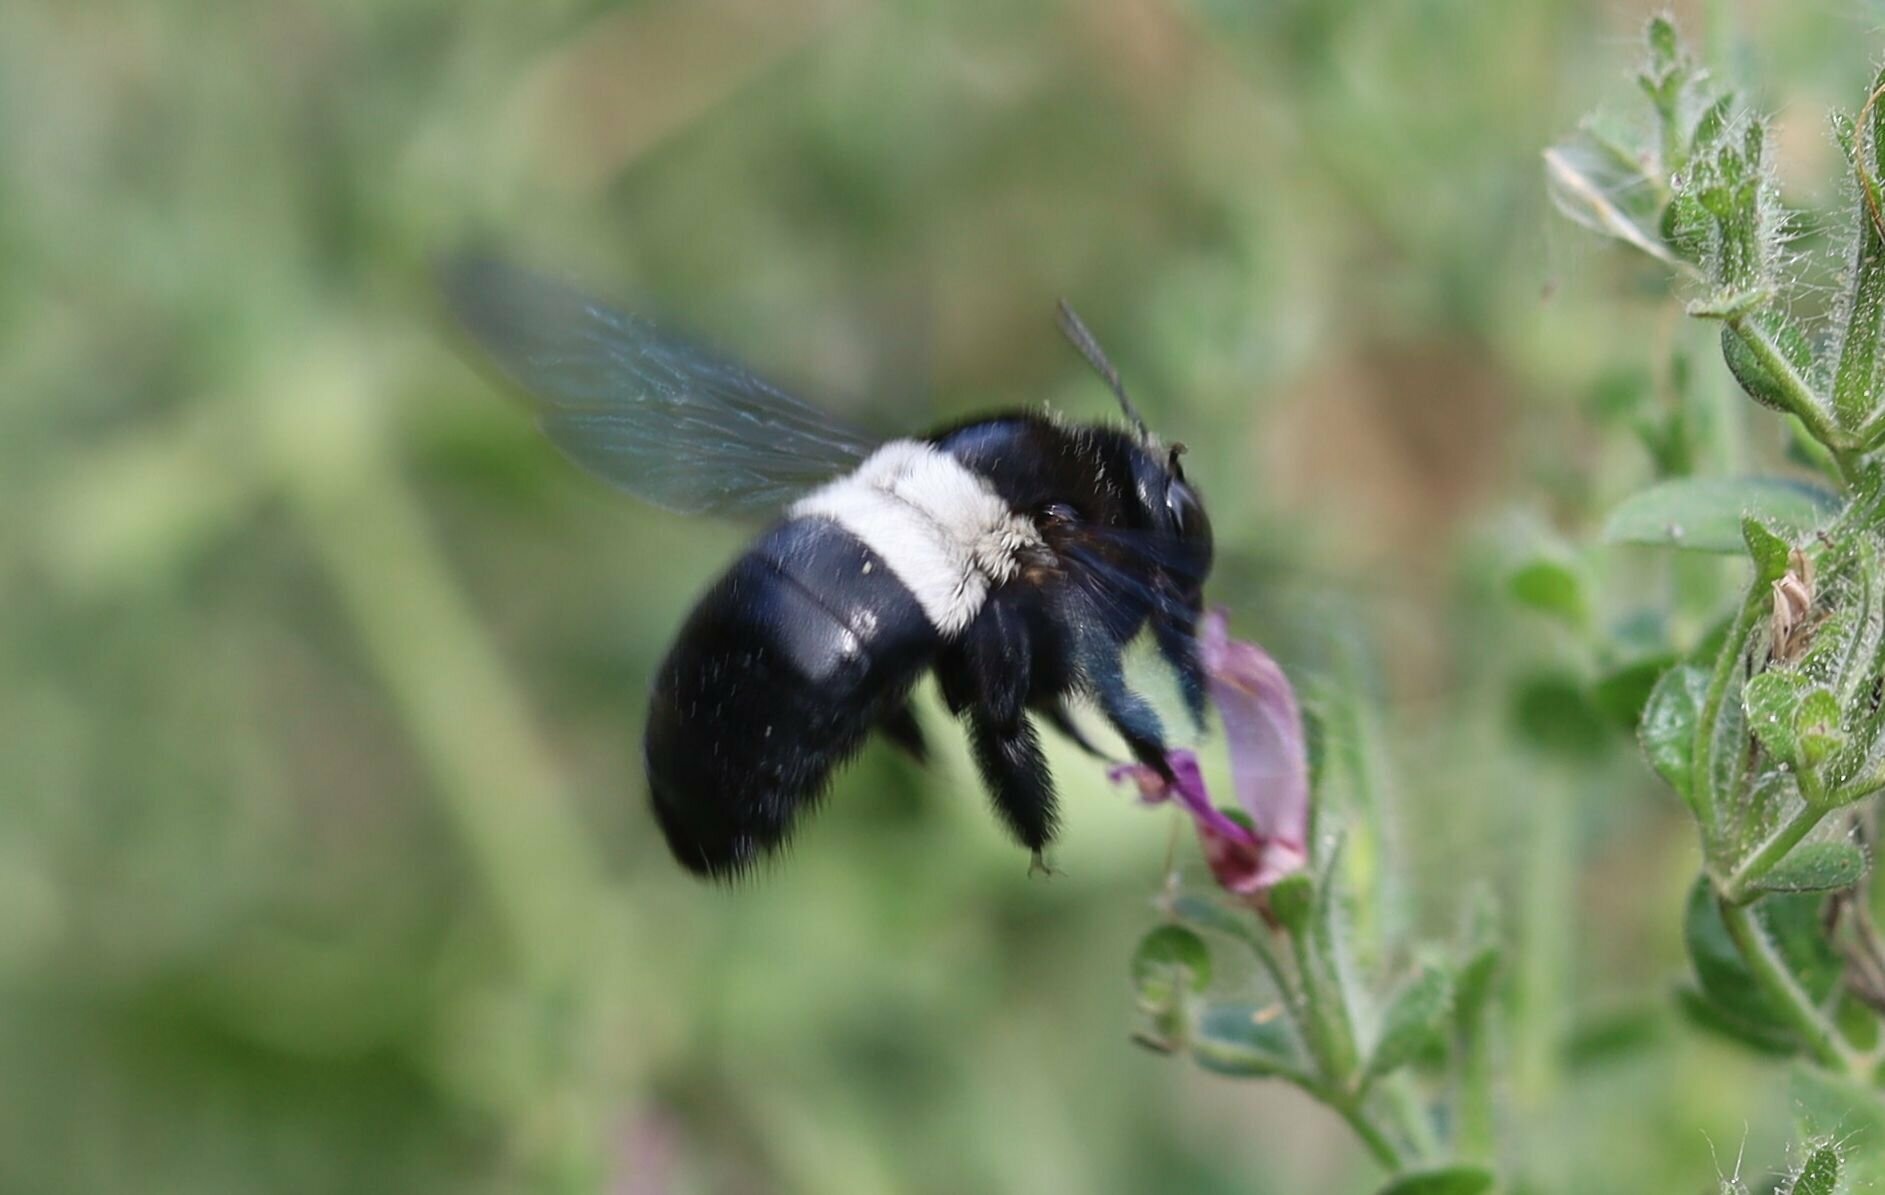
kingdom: Animalia
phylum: Arthropoda
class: Insecta
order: Hymenoptera
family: Apidae
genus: Xylocopa
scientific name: Xylocopa caffra
